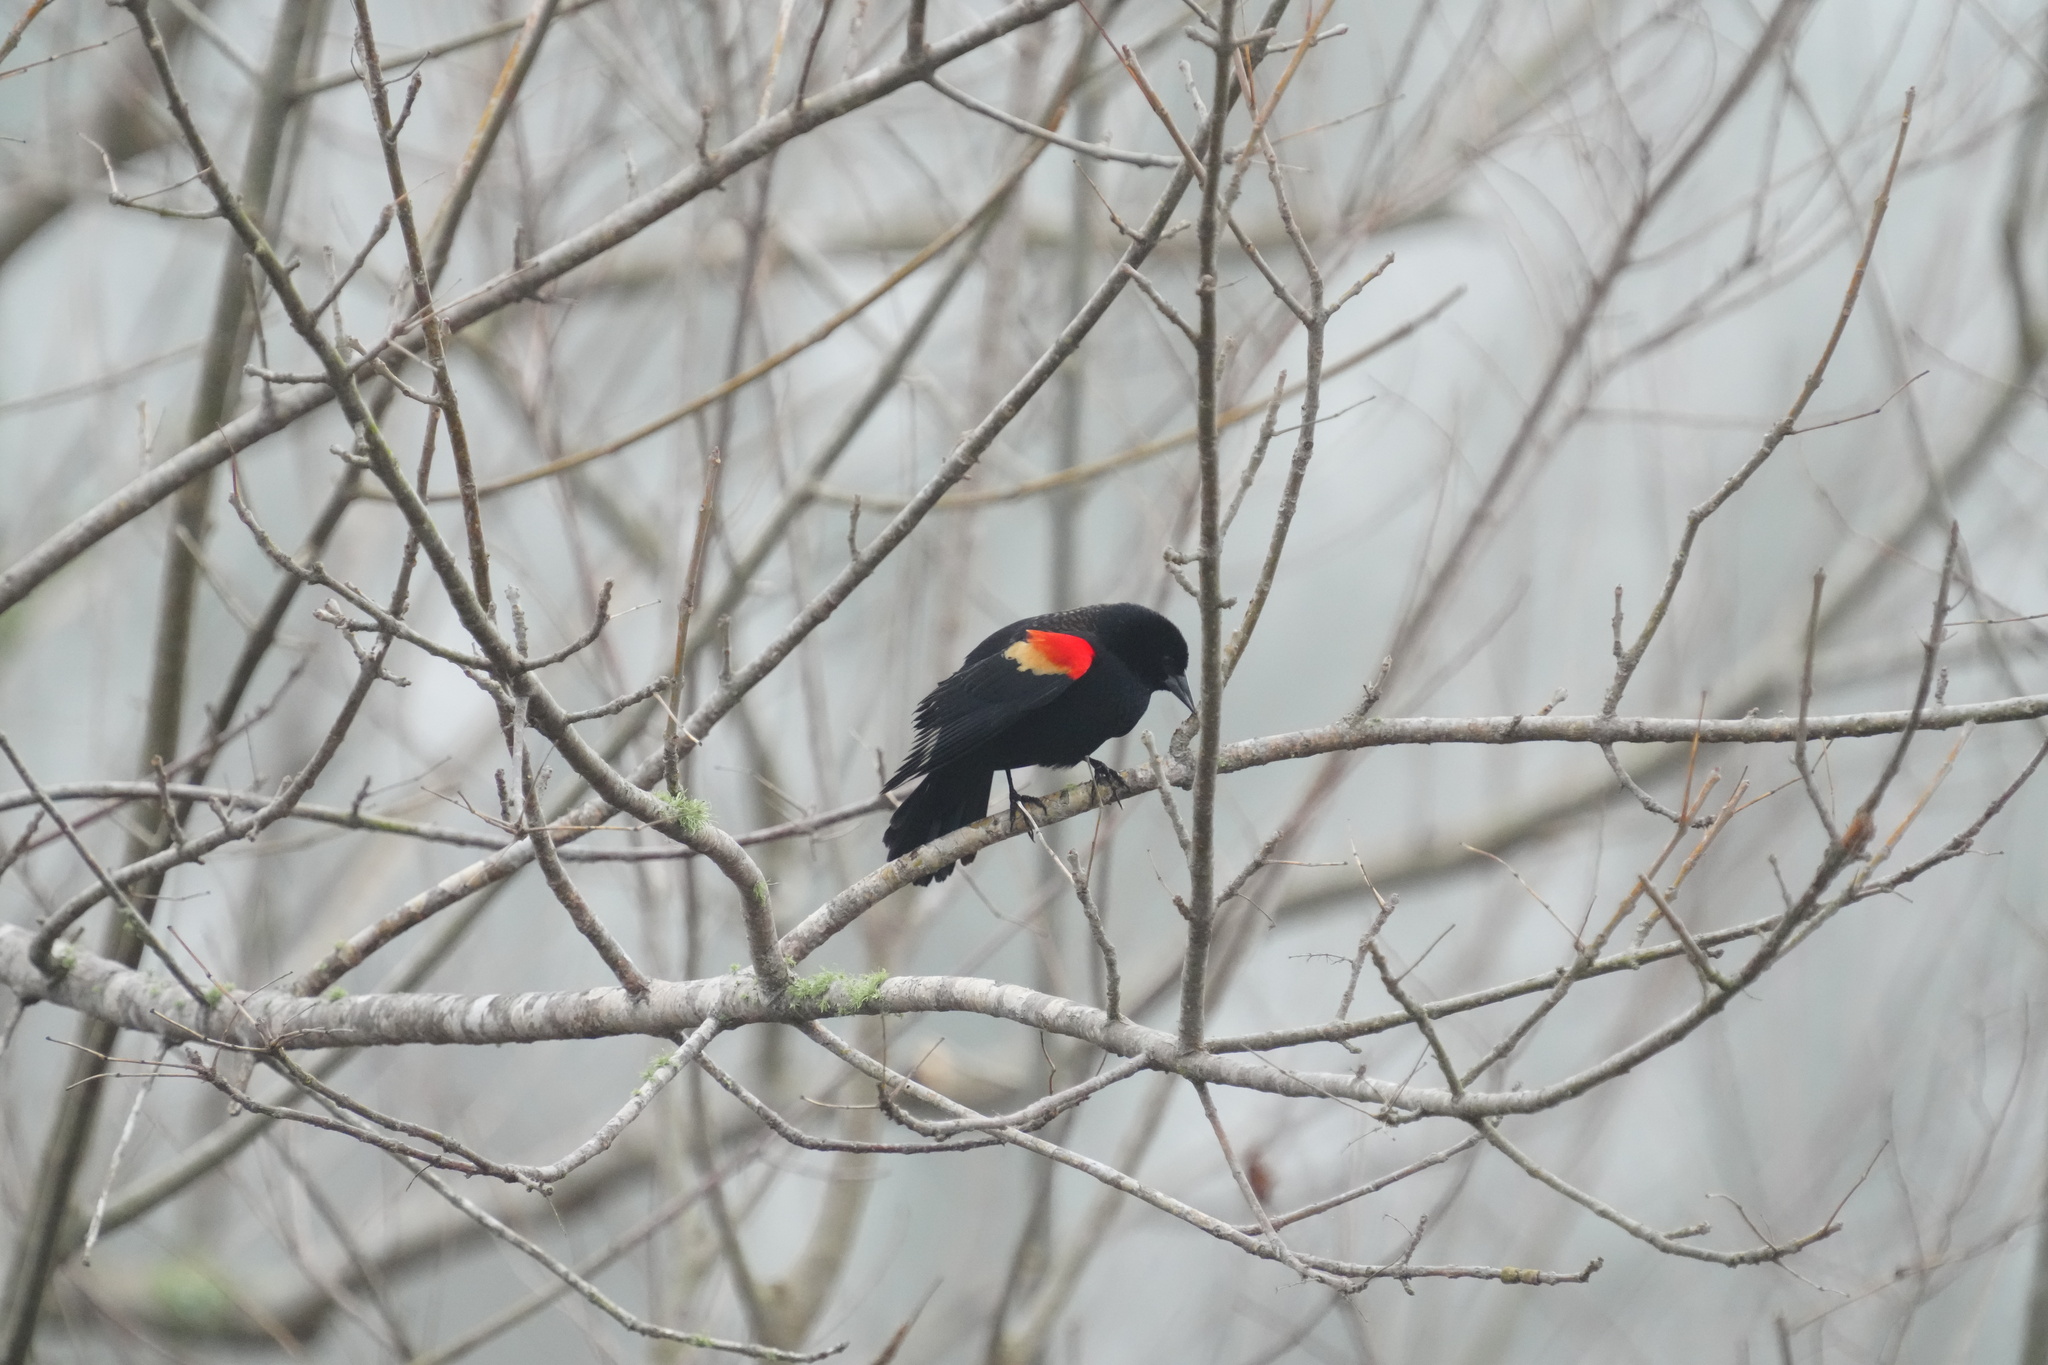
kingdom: Animalia
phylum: Chordata
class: Aves
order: Passeriformes
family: Icteridae
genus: Agelaius
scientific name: Agelaius phoeniceus
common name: Red-winged blackbird
